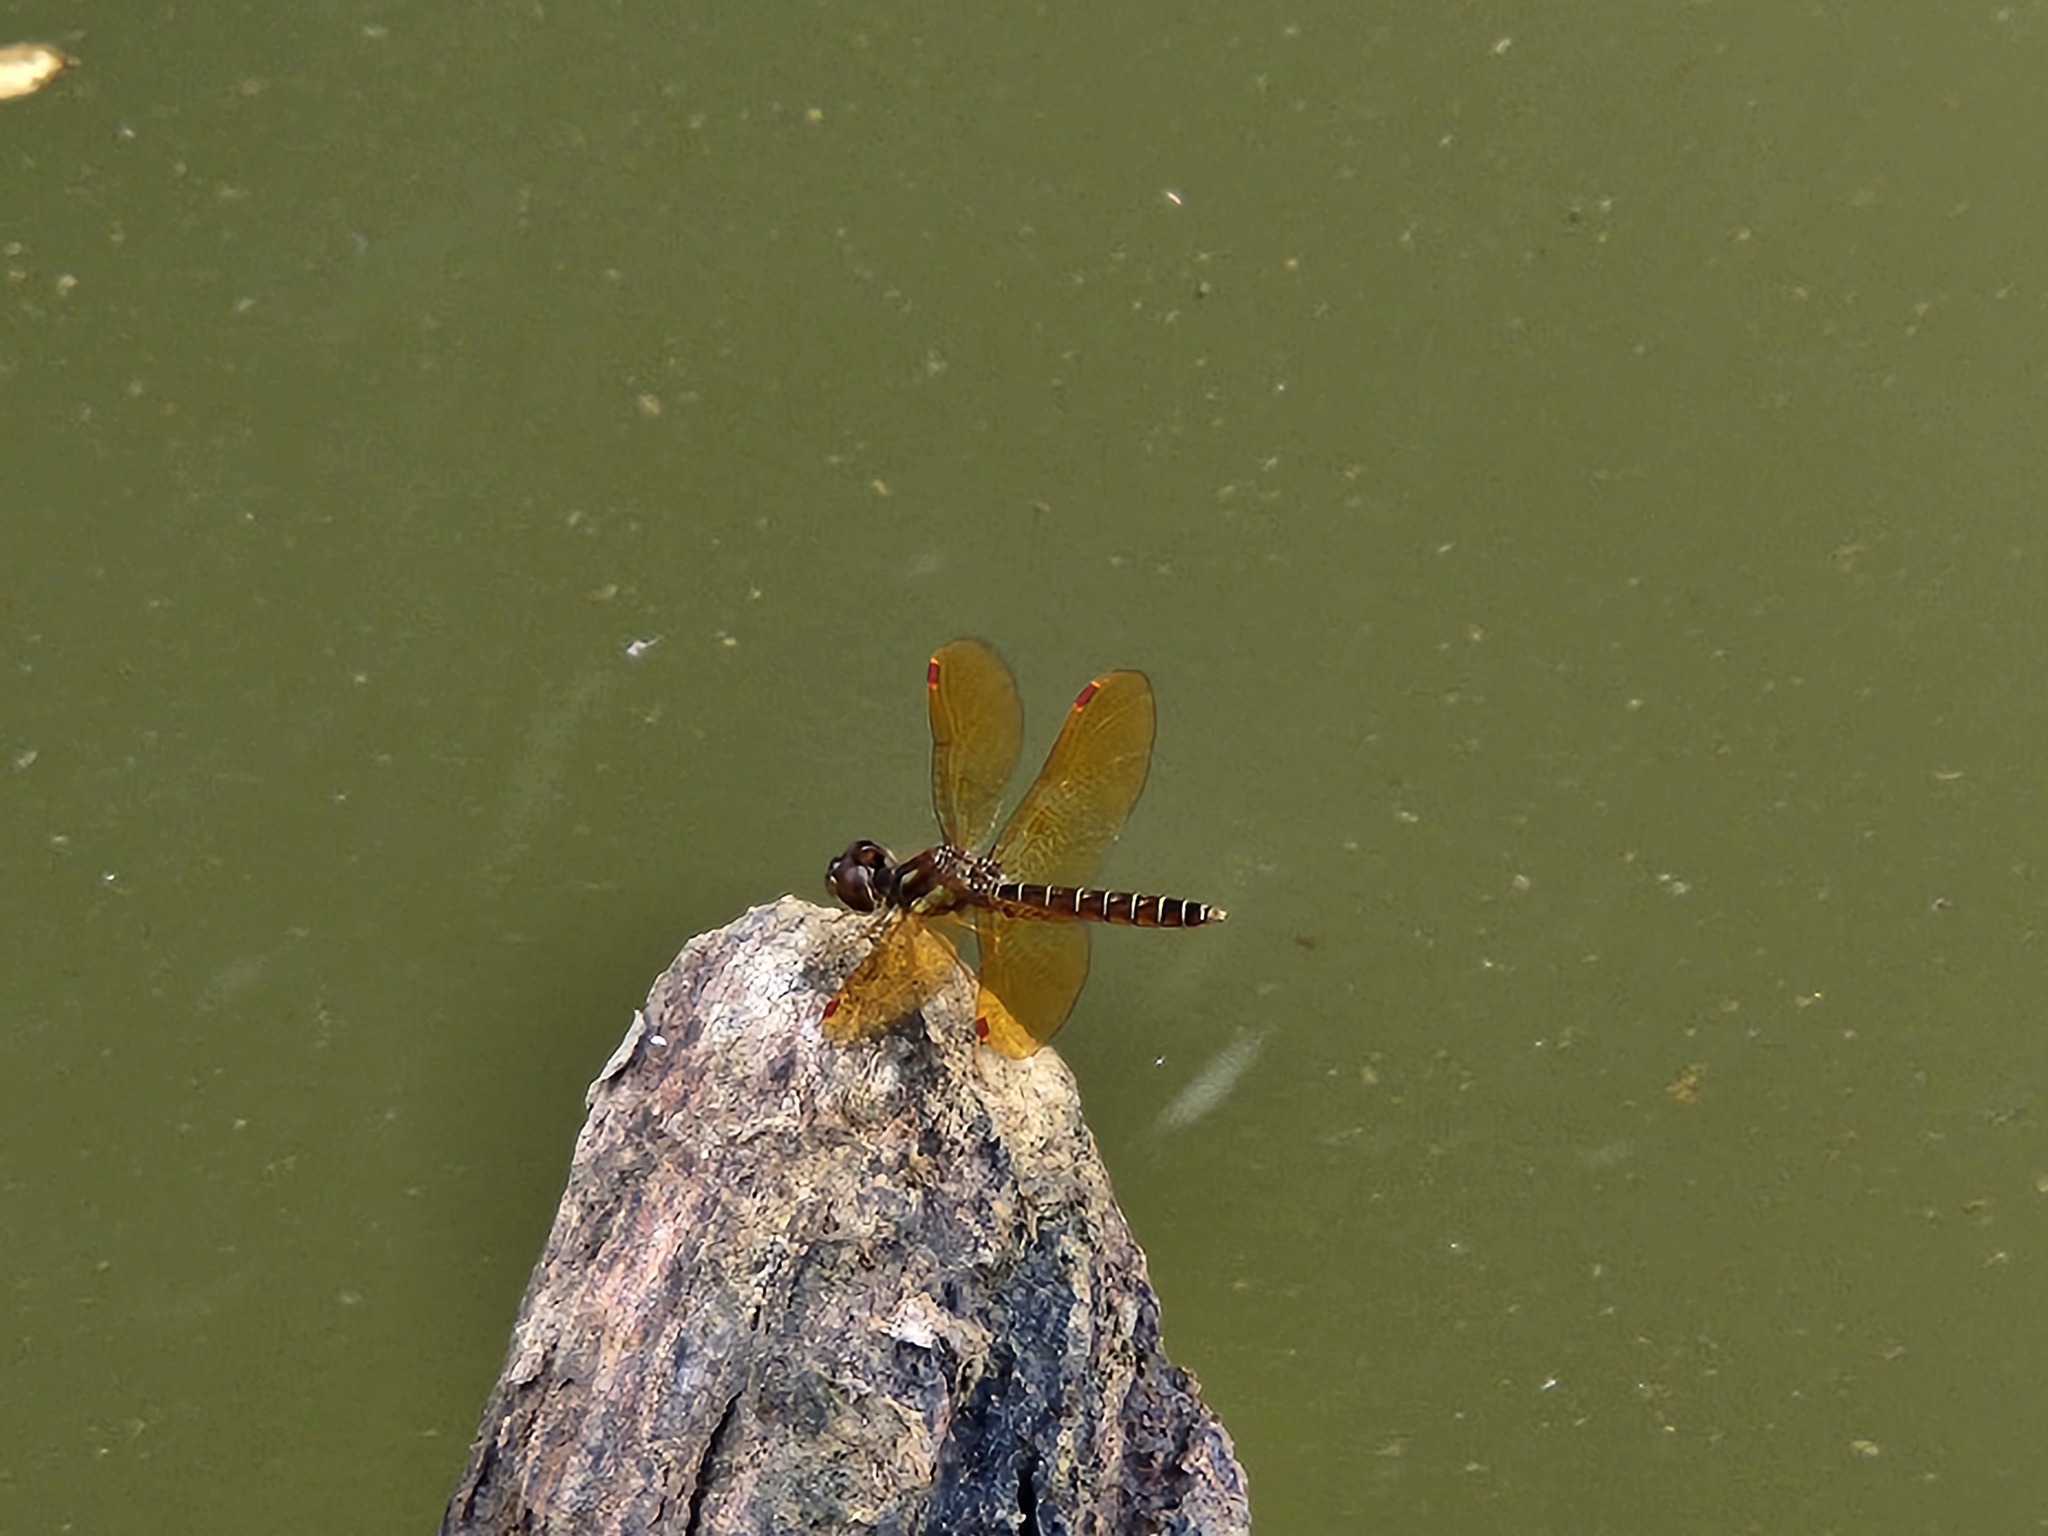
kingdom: Animalia
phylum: Arthropoda
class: Insecta
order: Odonata
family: Libellulidae
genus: Perithemis
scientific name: Perithemis tenera
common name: Eastern amberwing
